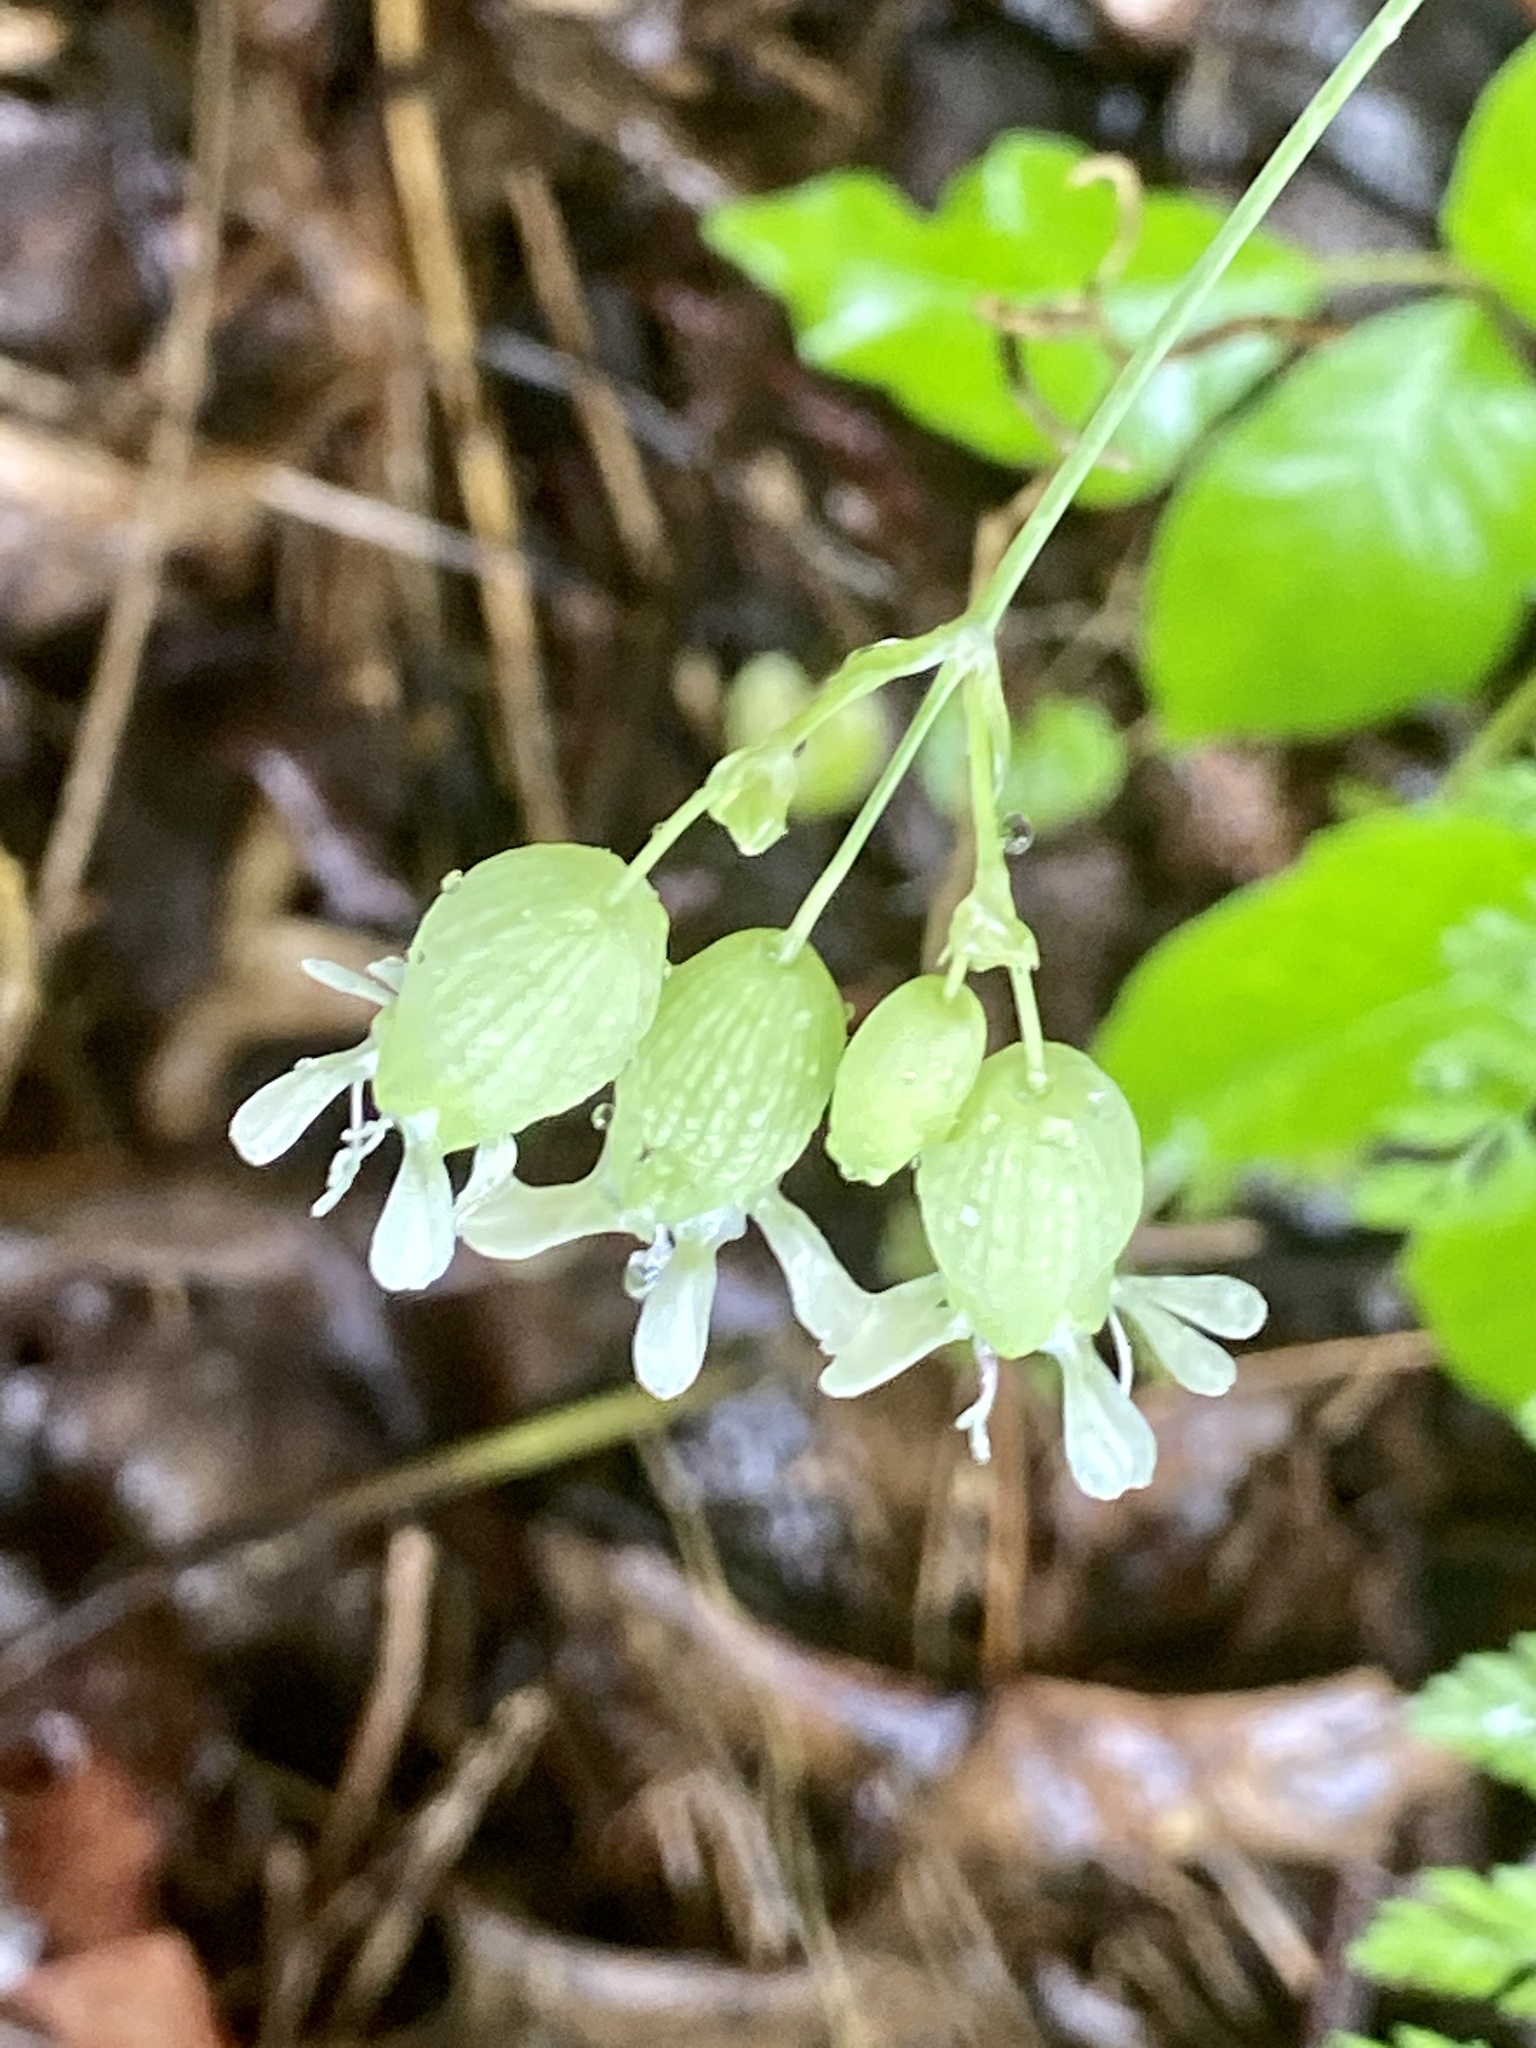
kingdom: Plantae
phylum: Tracheophyta
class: Magnoliopsida
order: Caryophyllales
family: Caryophyllaceae
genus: Silene
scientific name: Silene vulgaris
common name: Bladder campion
